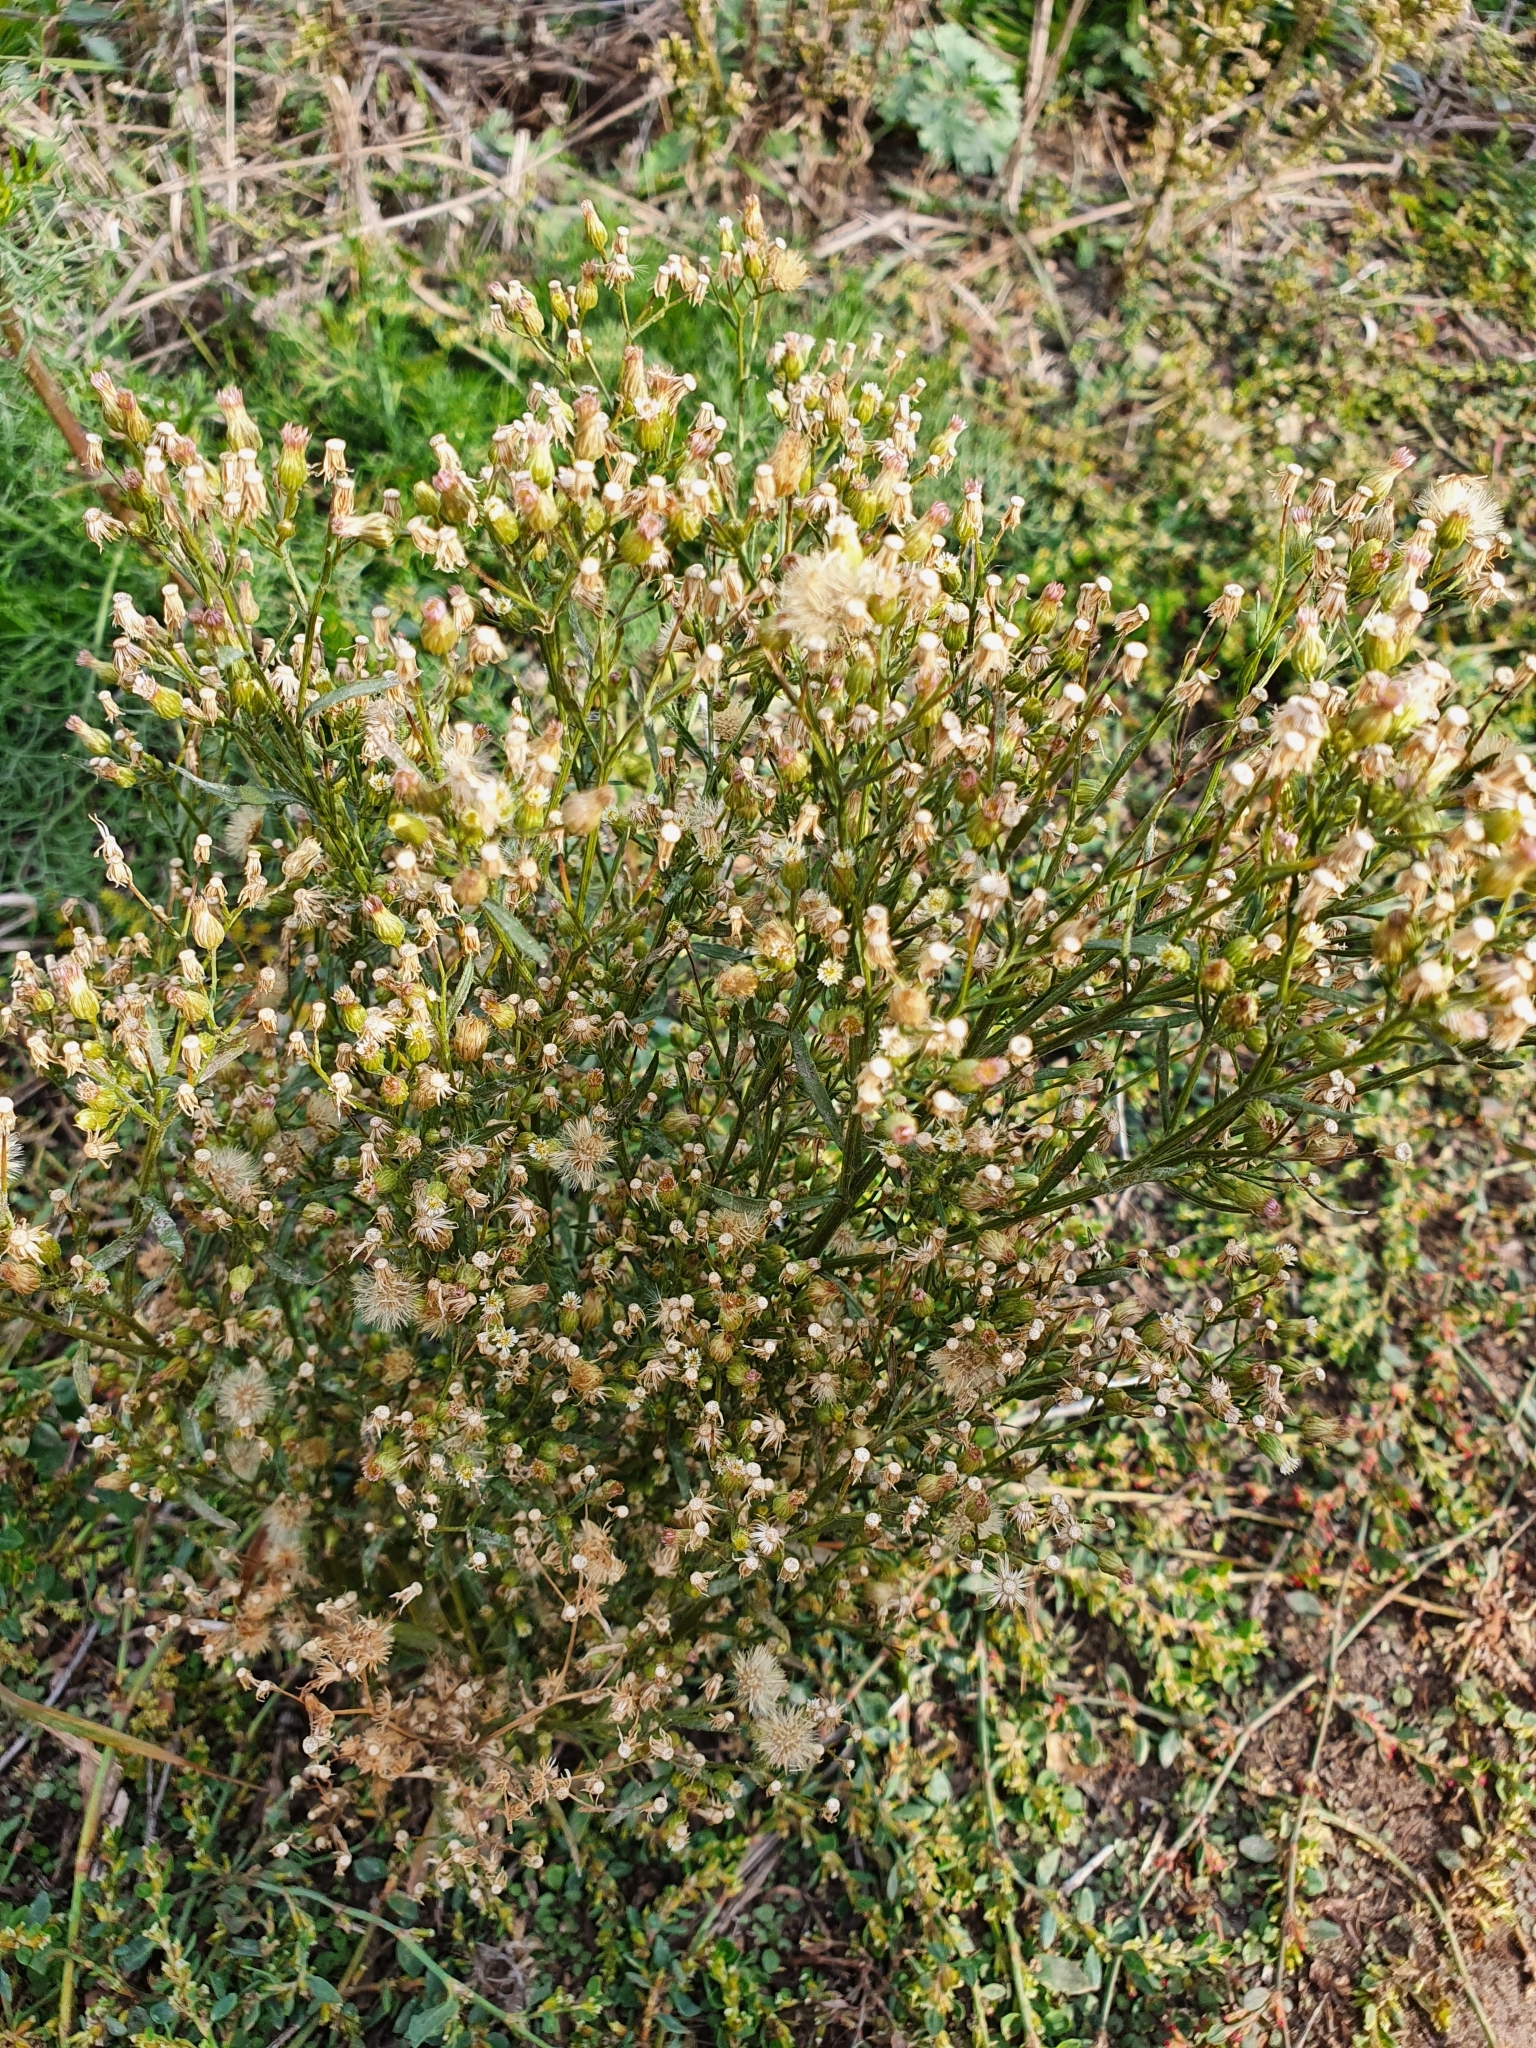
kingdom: Plantae
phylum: Tracheophyta
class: Magnoliopsida
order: Asterales
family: Asteraceae
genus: Erigeron
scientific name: Erigeron canadensis
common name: Canadian fleabane
